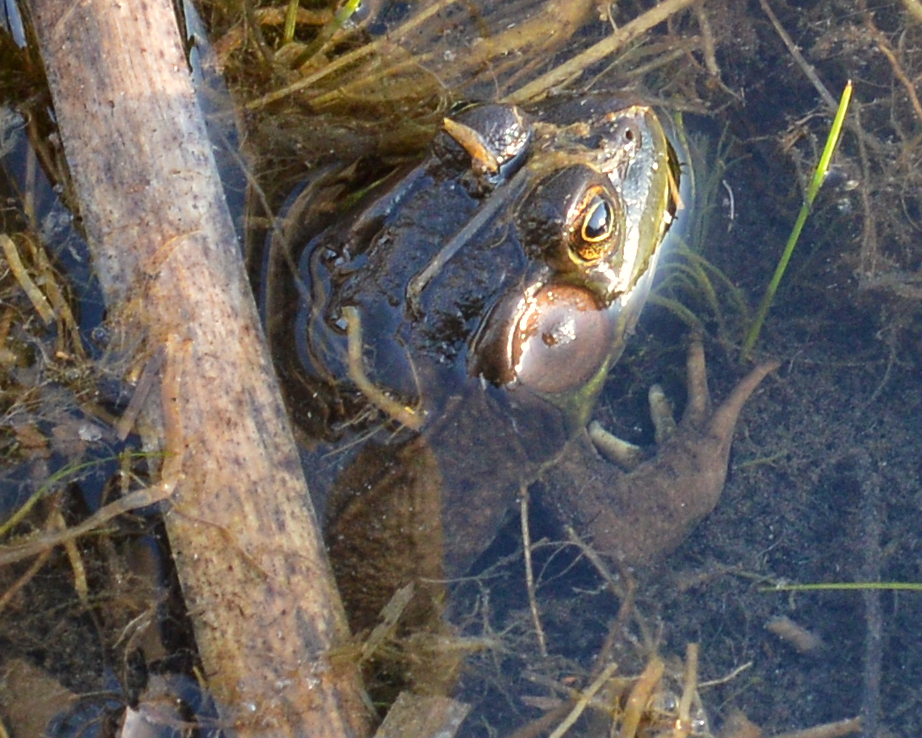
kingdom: Animalia
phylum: Chordata
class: Amphibia
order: Anura
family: Ranidae
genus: Lithobates
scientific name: Lithobates clamitans
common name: Green frog
